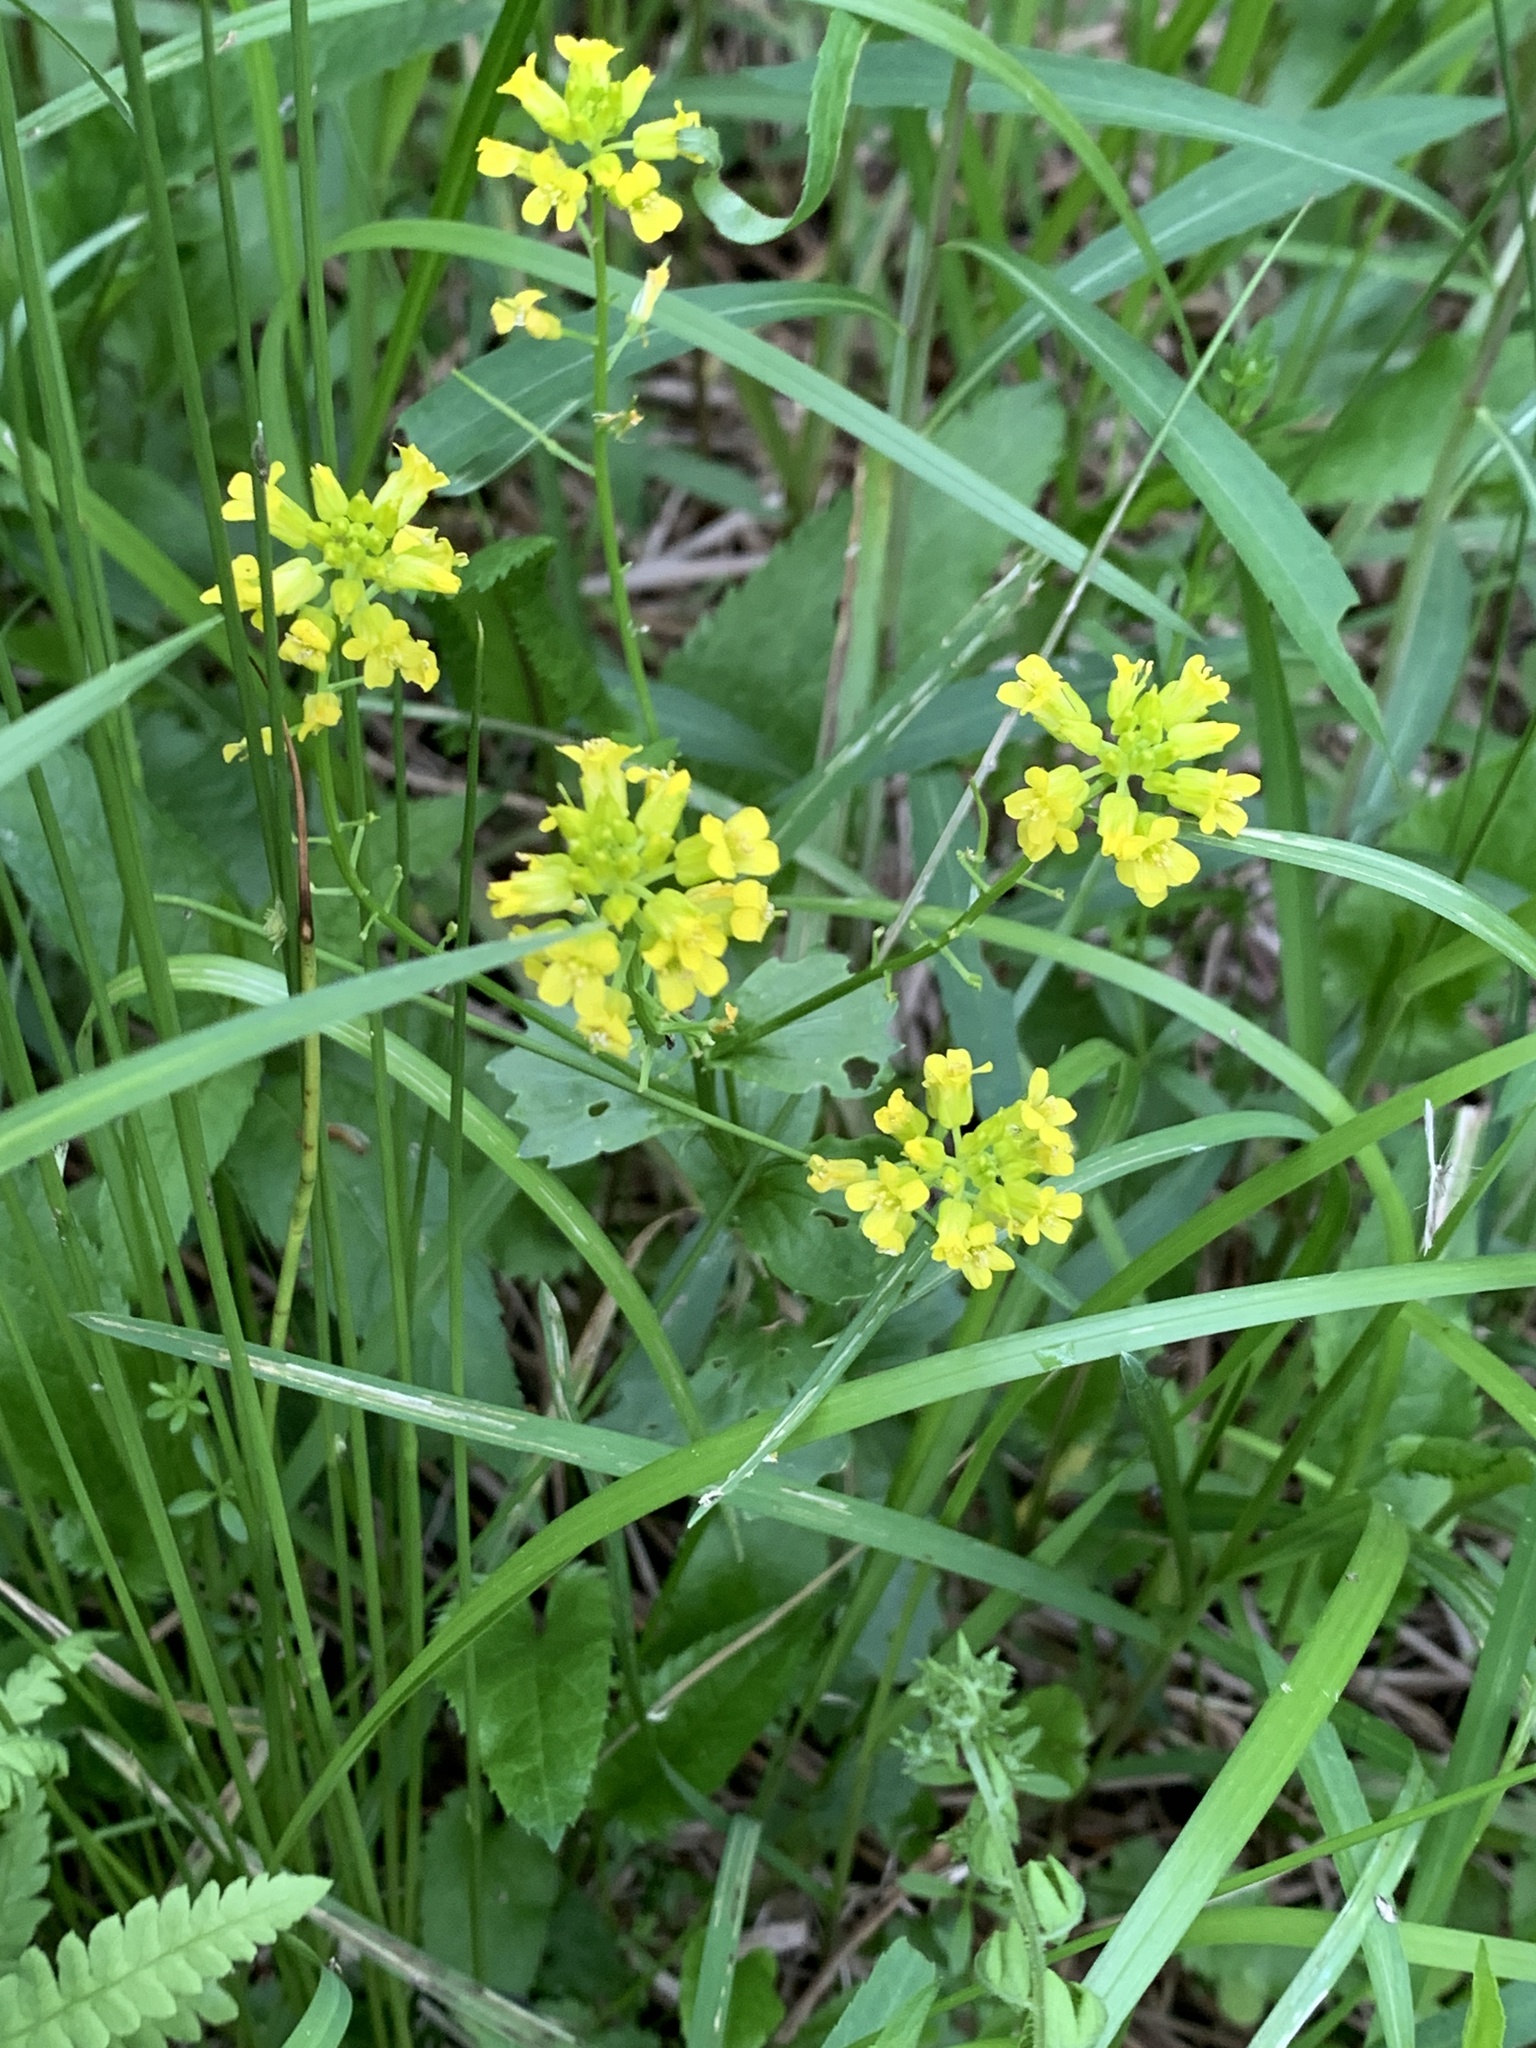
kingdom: Plantae
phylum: Tracheophyta
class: Magnoliopsida
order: Brassicales
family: Brassicaceae
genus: Barbarea
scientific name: Barbarea vulgaris
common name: Cressy-greens
